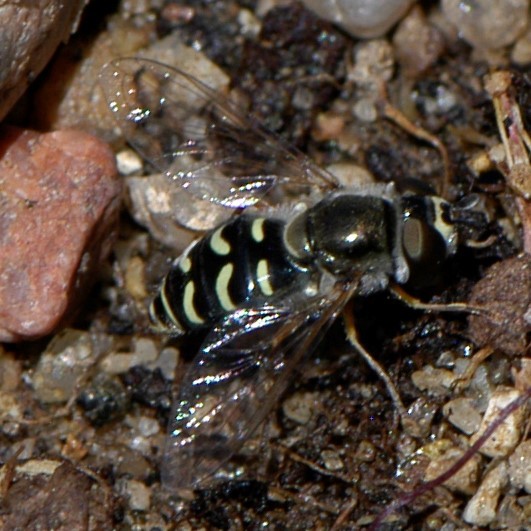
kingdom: Animalia
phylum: Arthropoda
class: Insecta
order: Diptera
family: Syrphidae
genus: Eupeodes
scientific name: Eupeodes volucris
